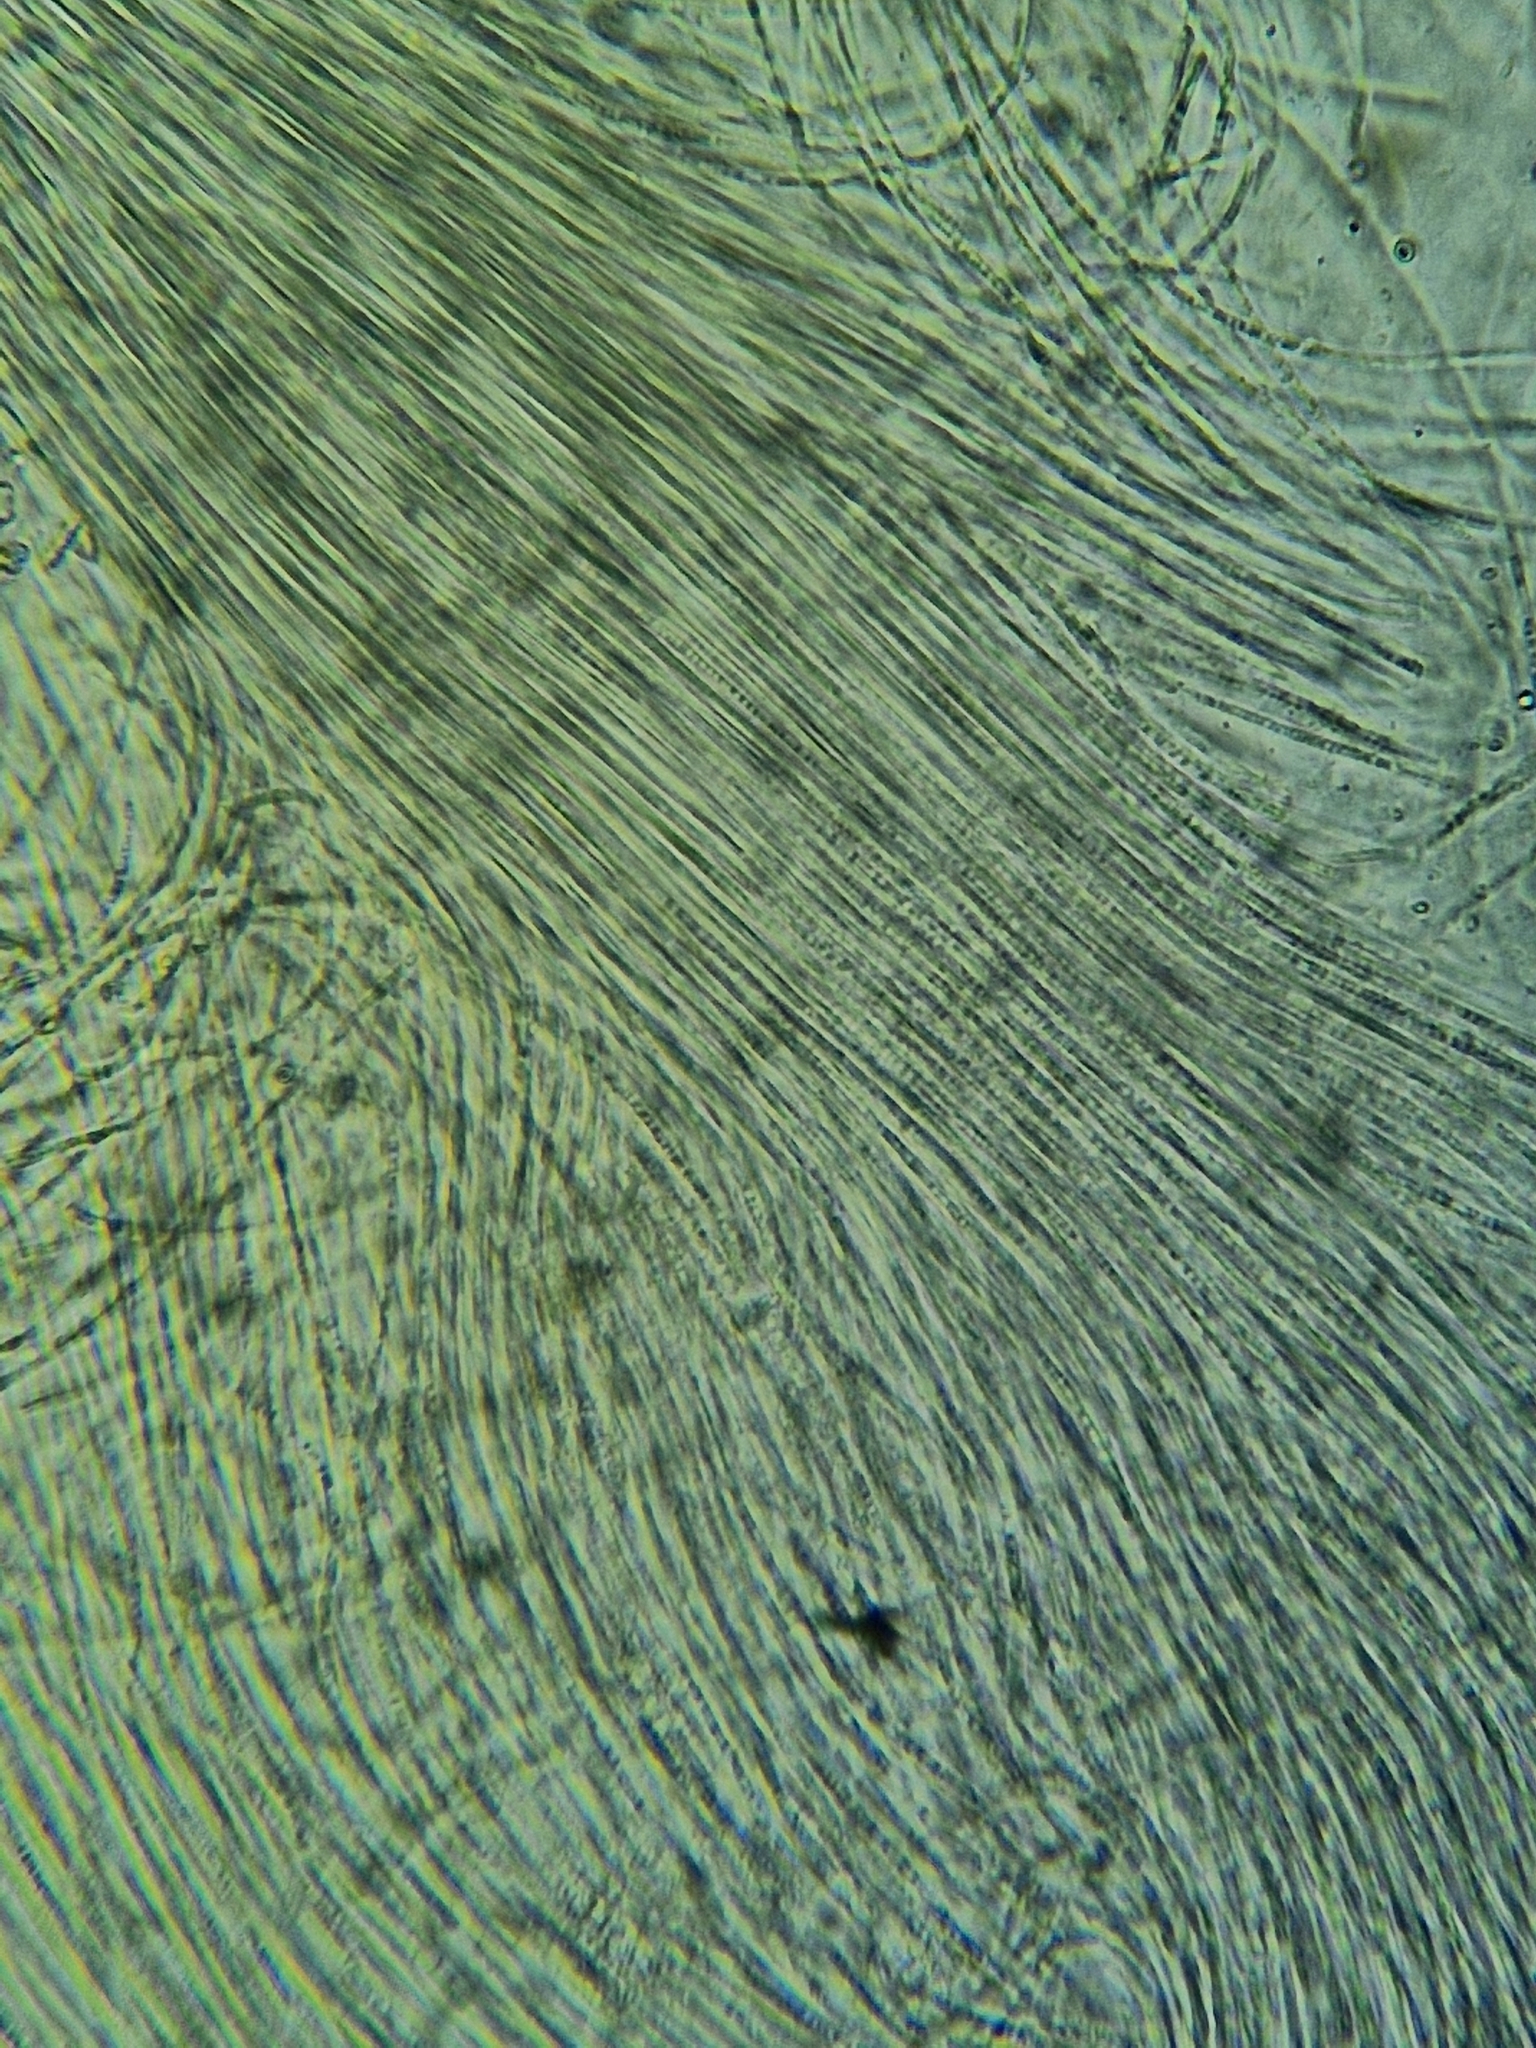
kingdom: Fungi
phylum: Ascomycota
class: Dothideomycetes
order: Acrospermales
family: Acrospermaceae
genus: Acrospermum
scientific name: Acrospermum compressum
